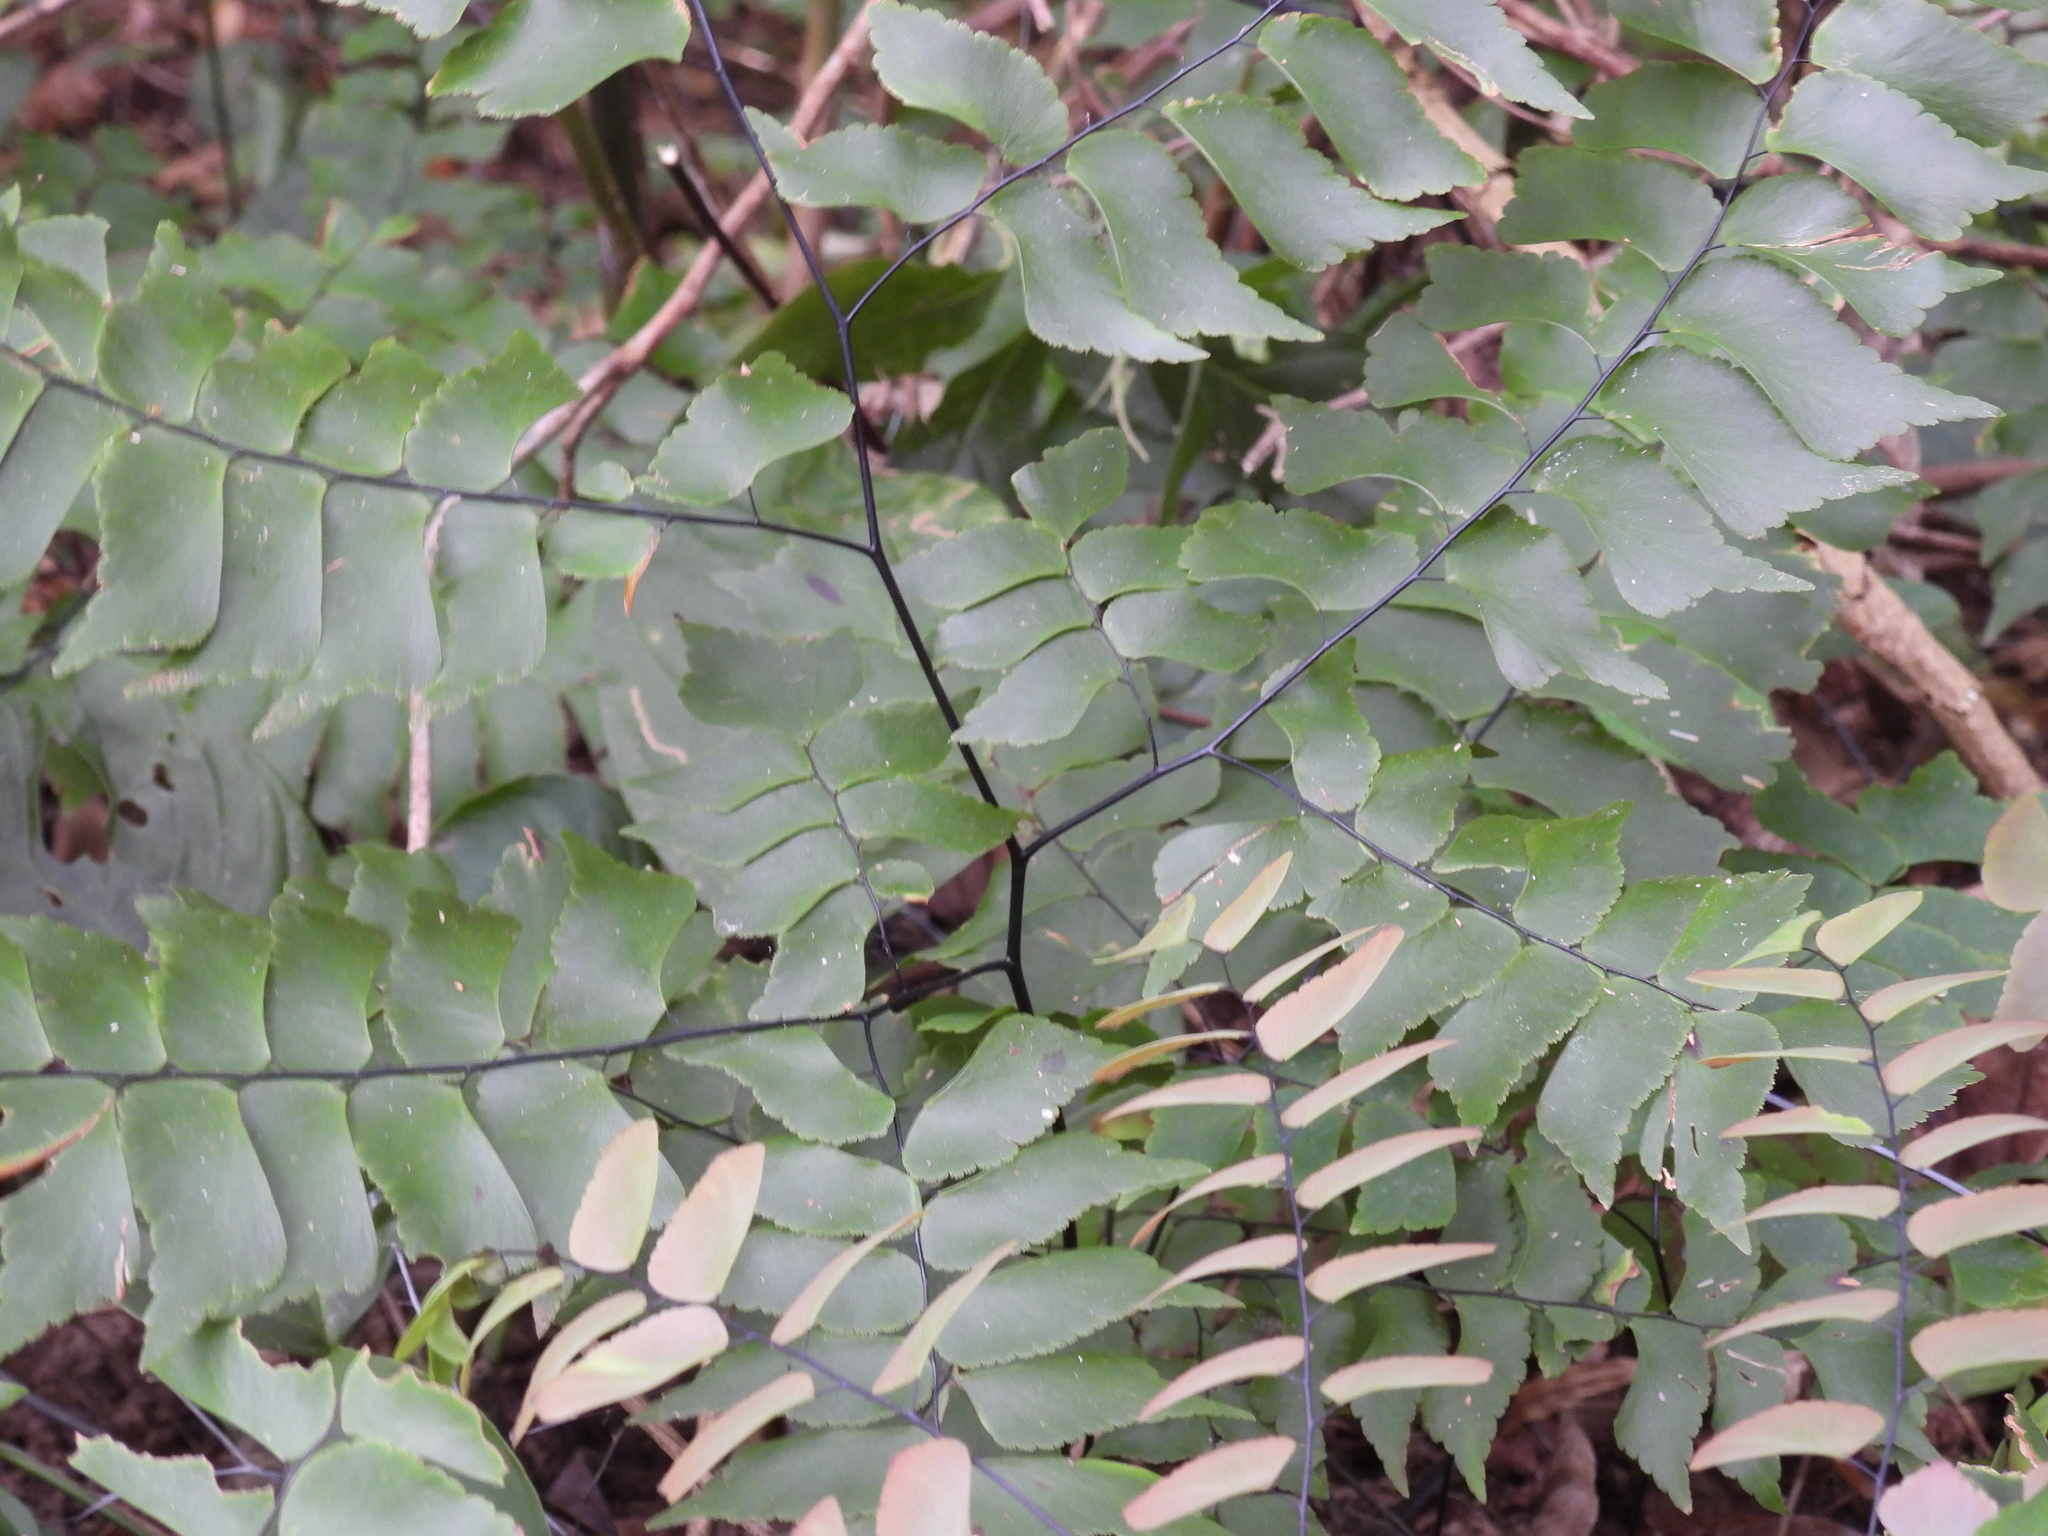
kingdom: Plantae
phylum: Tracheophyta
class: Polypodiopsida
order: Polypodiales
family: Pteridaceae
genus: Adiantum
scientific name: Adiantum trapeziforme
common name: Diamond maidenhair
